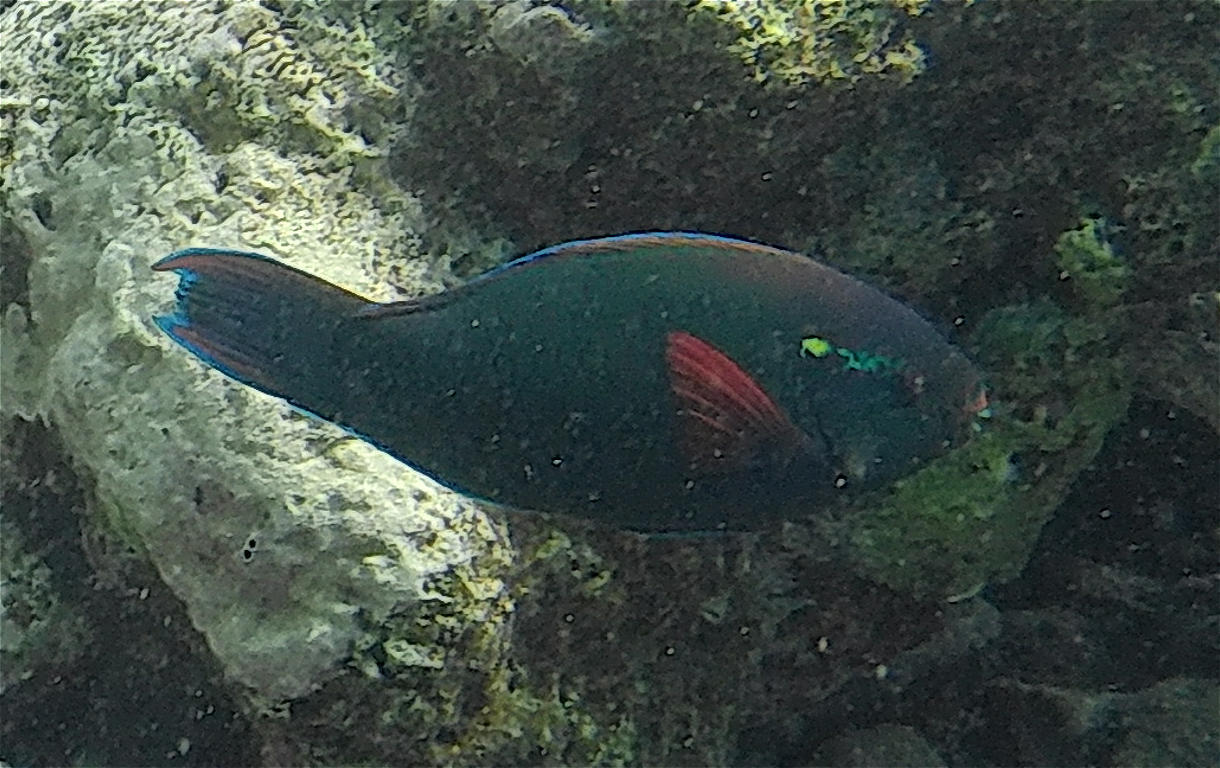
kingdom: Animalia
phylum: Chordata
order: Perciformes
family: Scaridae
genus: Scarus
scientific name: Scarus niger
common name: Dusky parrotfish
